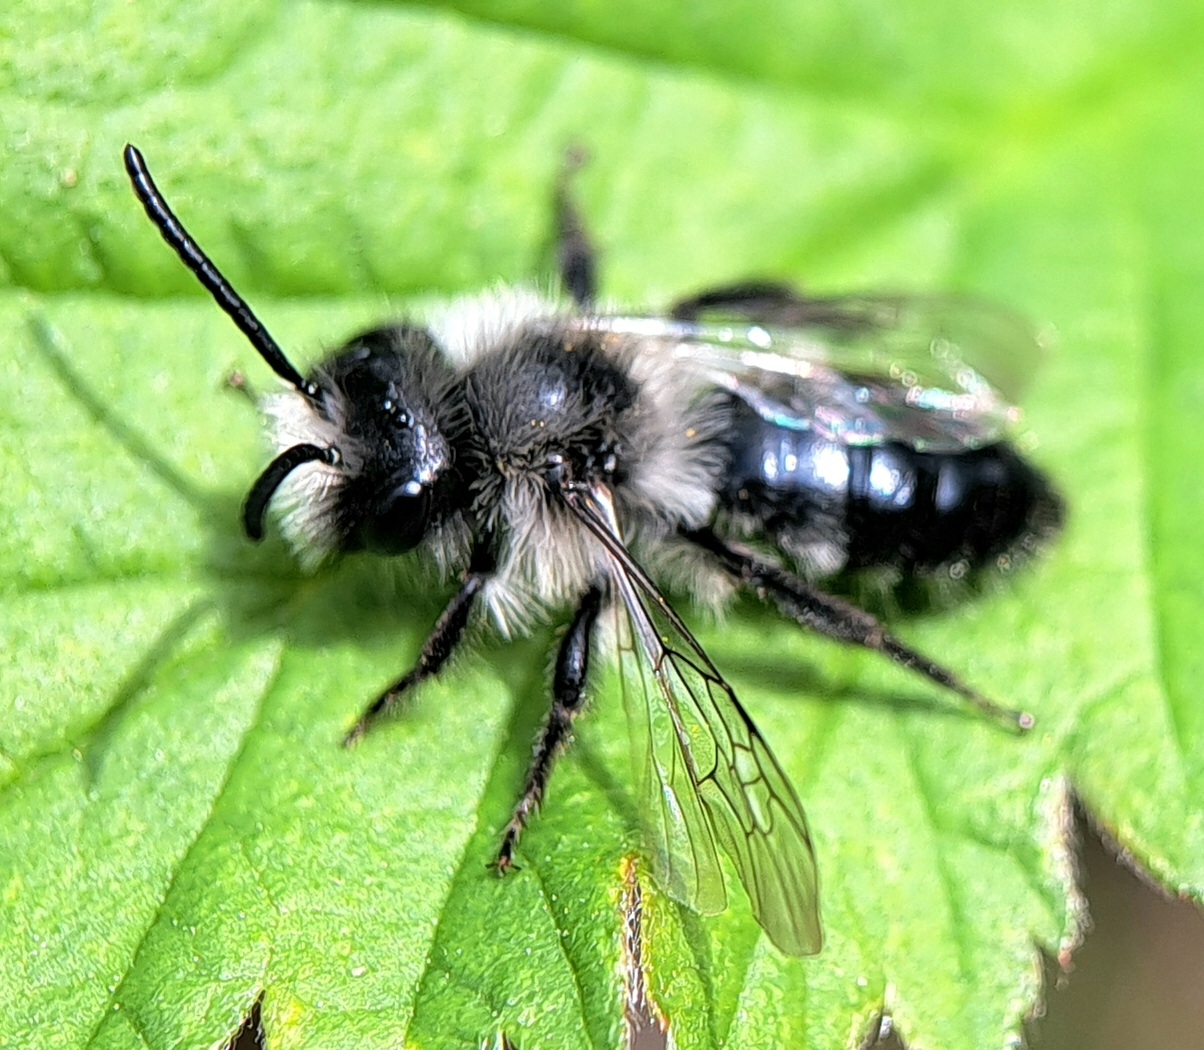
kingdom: Animalia
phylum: Arthropoda
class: Insecta
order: Hymenoptera
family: Andrenidae
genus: Andrena
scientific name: Andrena cineraria
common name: Ashy mining bee
